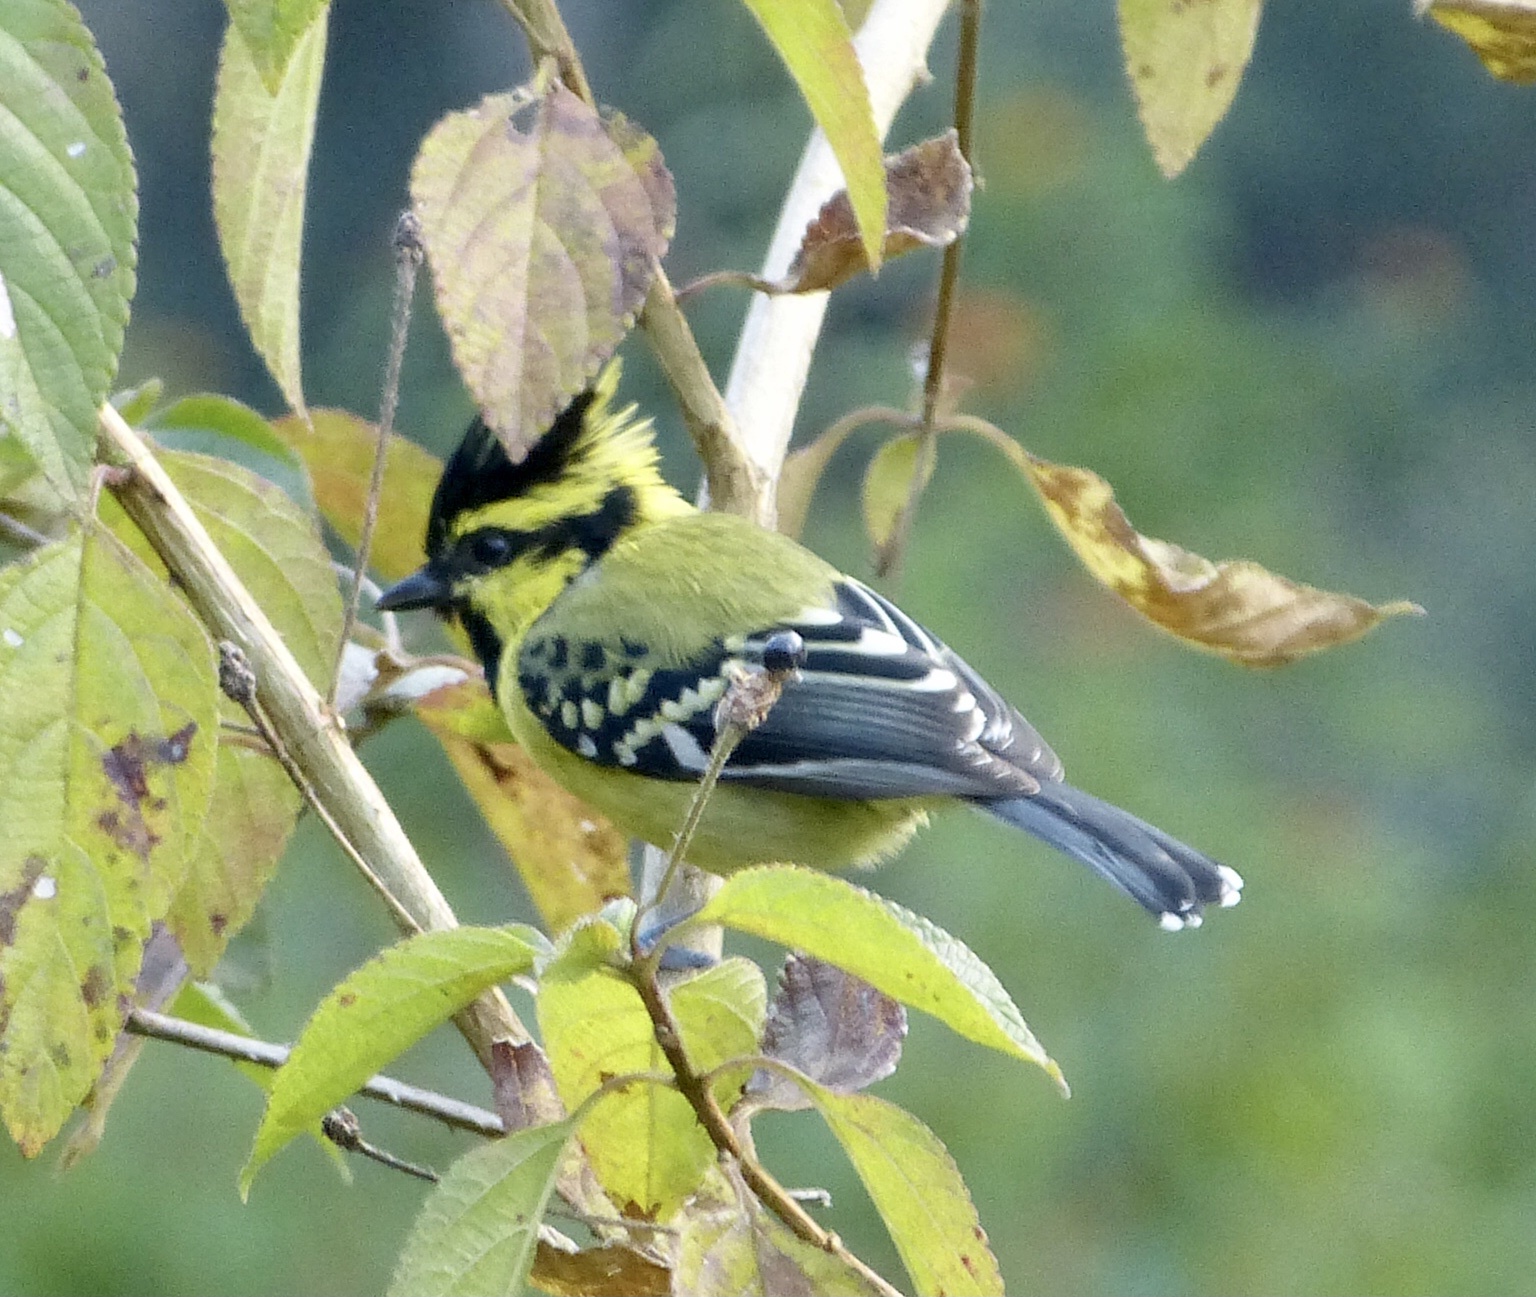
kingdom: Animalia
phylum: Chordata
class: Aves
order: Passeriformes
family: Paridae
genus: Parus
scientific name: Parus xanthogenys
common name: Black-lored tit
